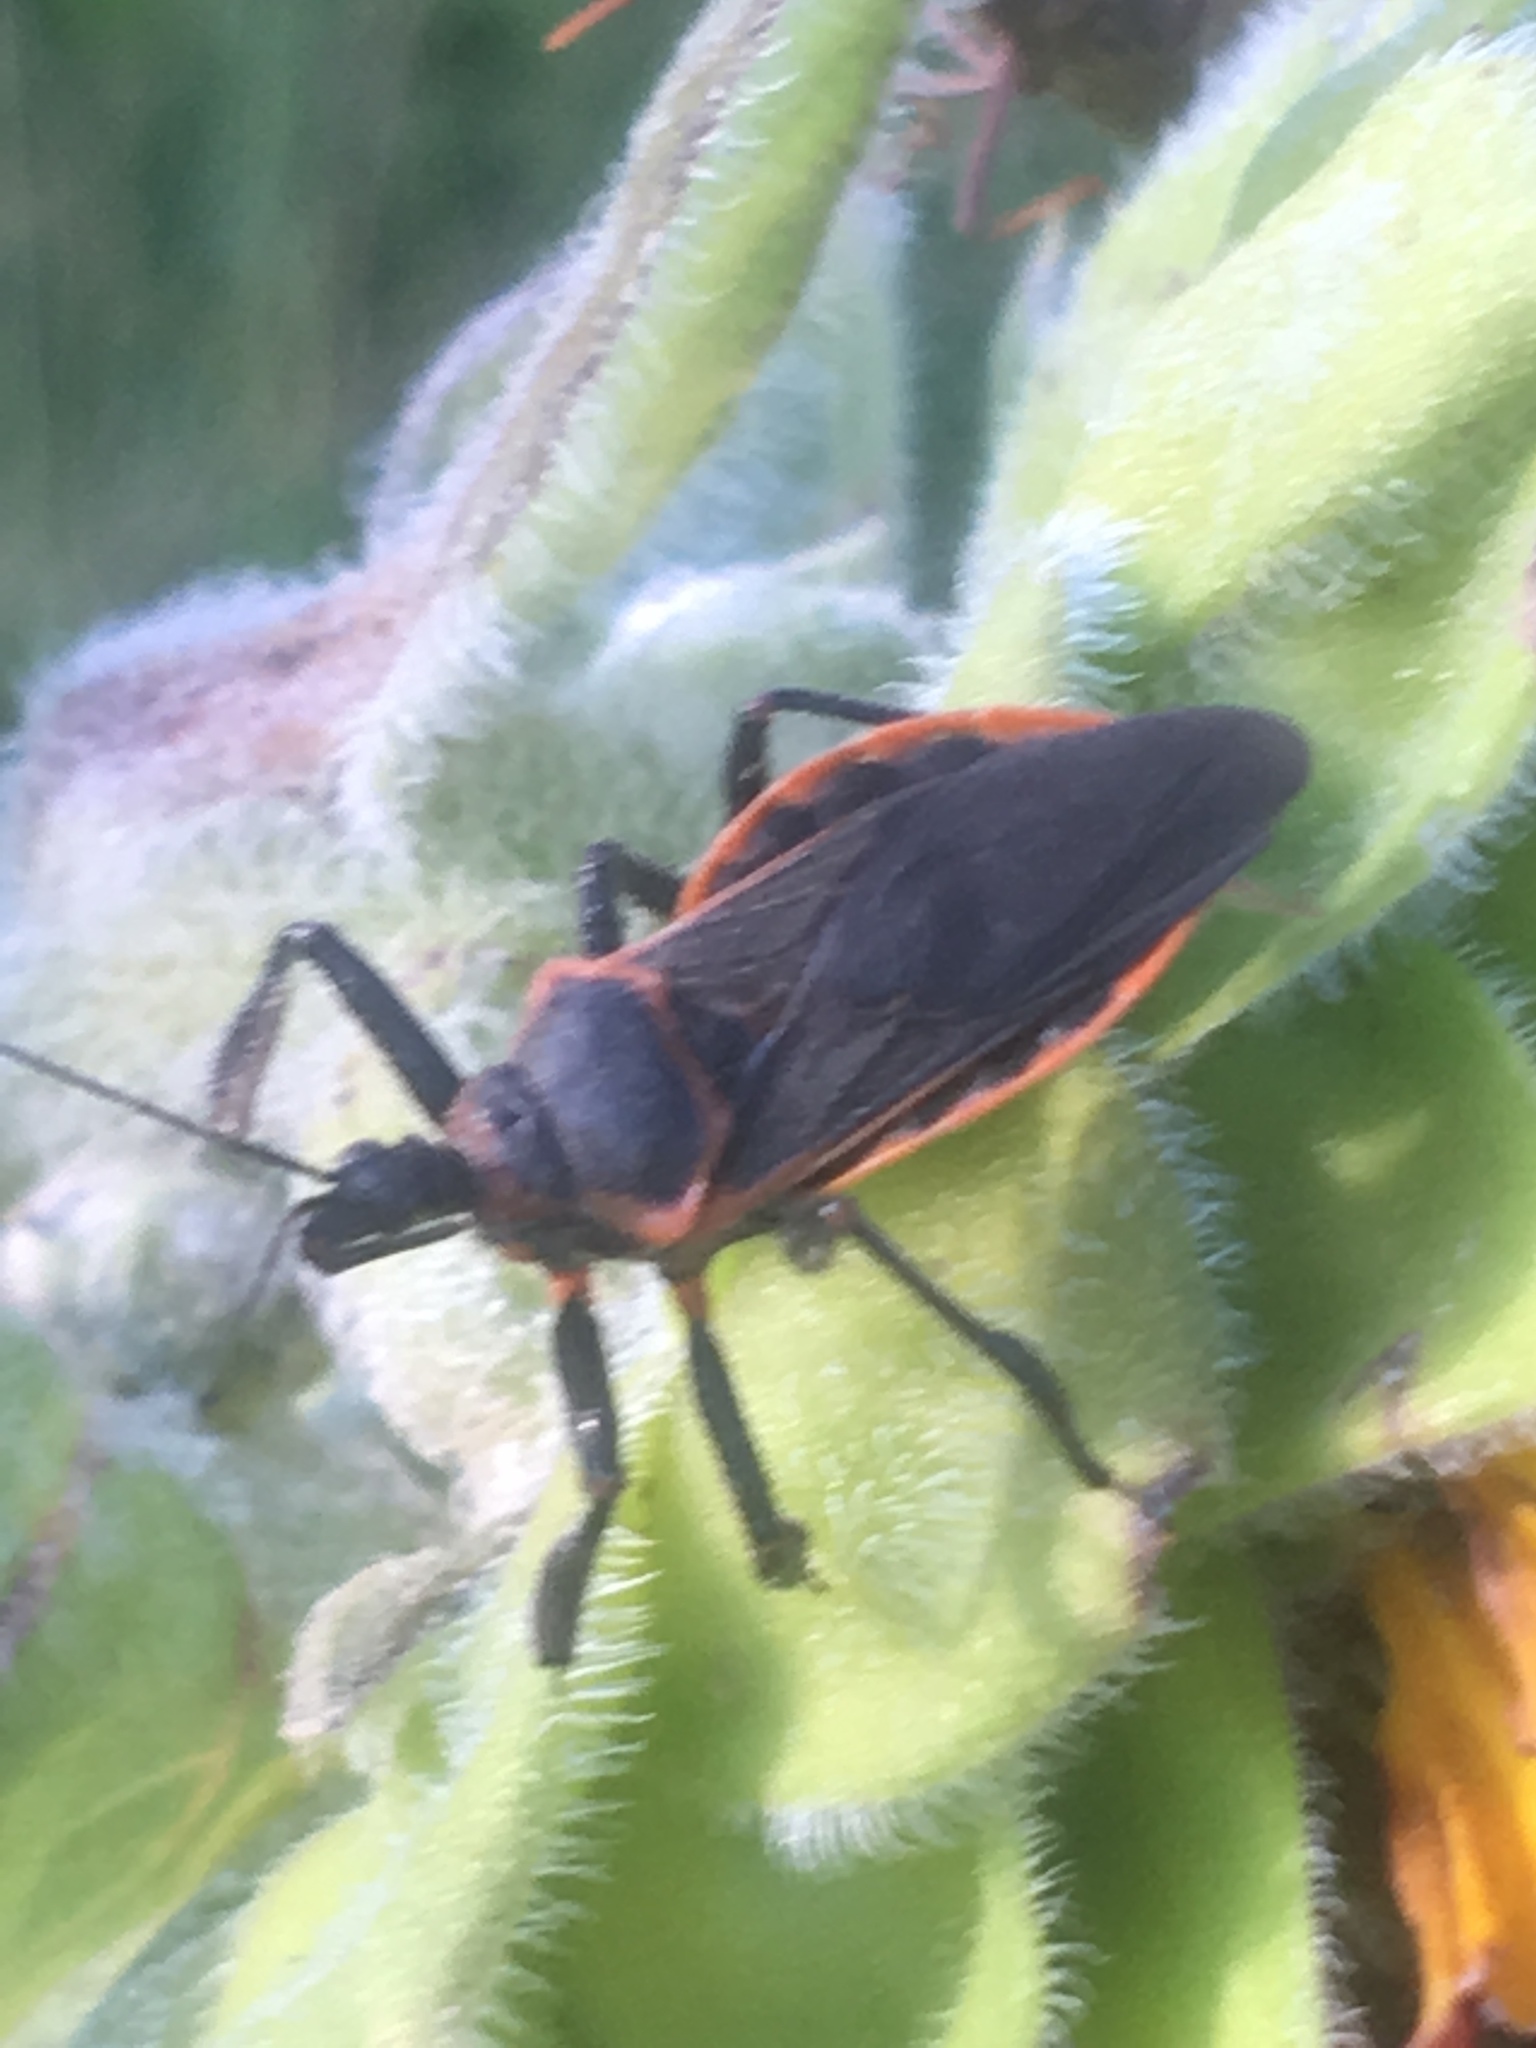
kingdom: Animalia
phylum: Arthropoda
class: Insecta
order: Hemiptera
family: Reduviidae
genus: Apiomerus
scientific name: Apiomerus crassipes
